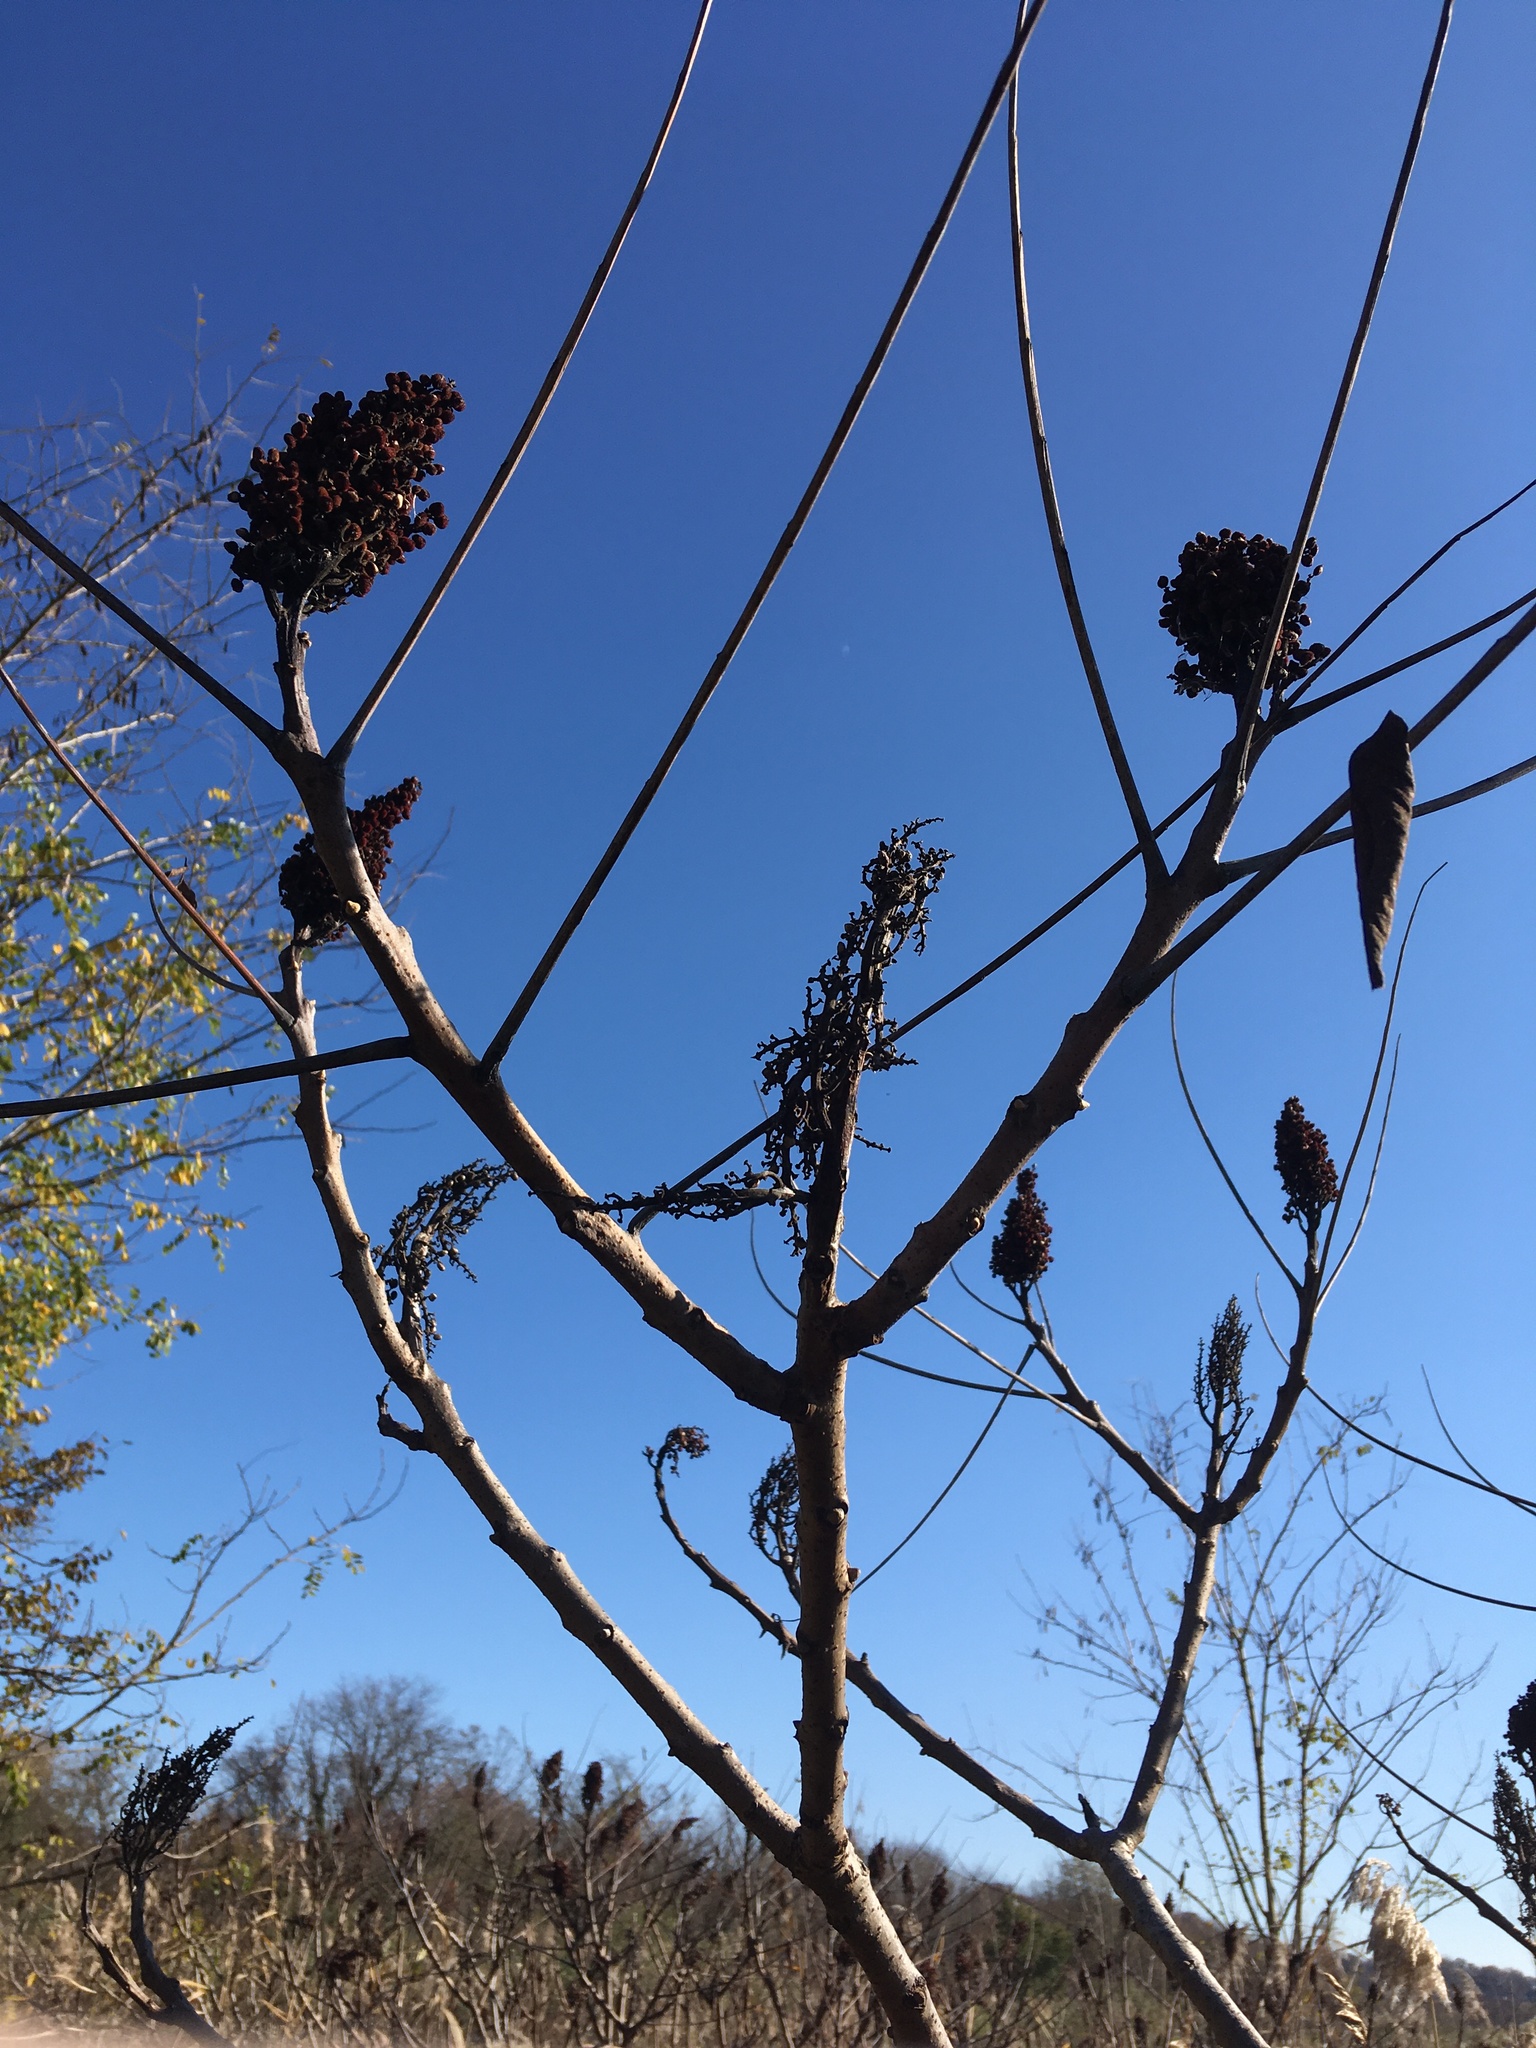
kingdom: Plantae
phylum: Tracheophyta
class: Magnoliopsida
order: Sapindales
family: Anacardiaceae
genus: Rhus
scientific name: Rhus glabra
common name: Scarlet sumac
